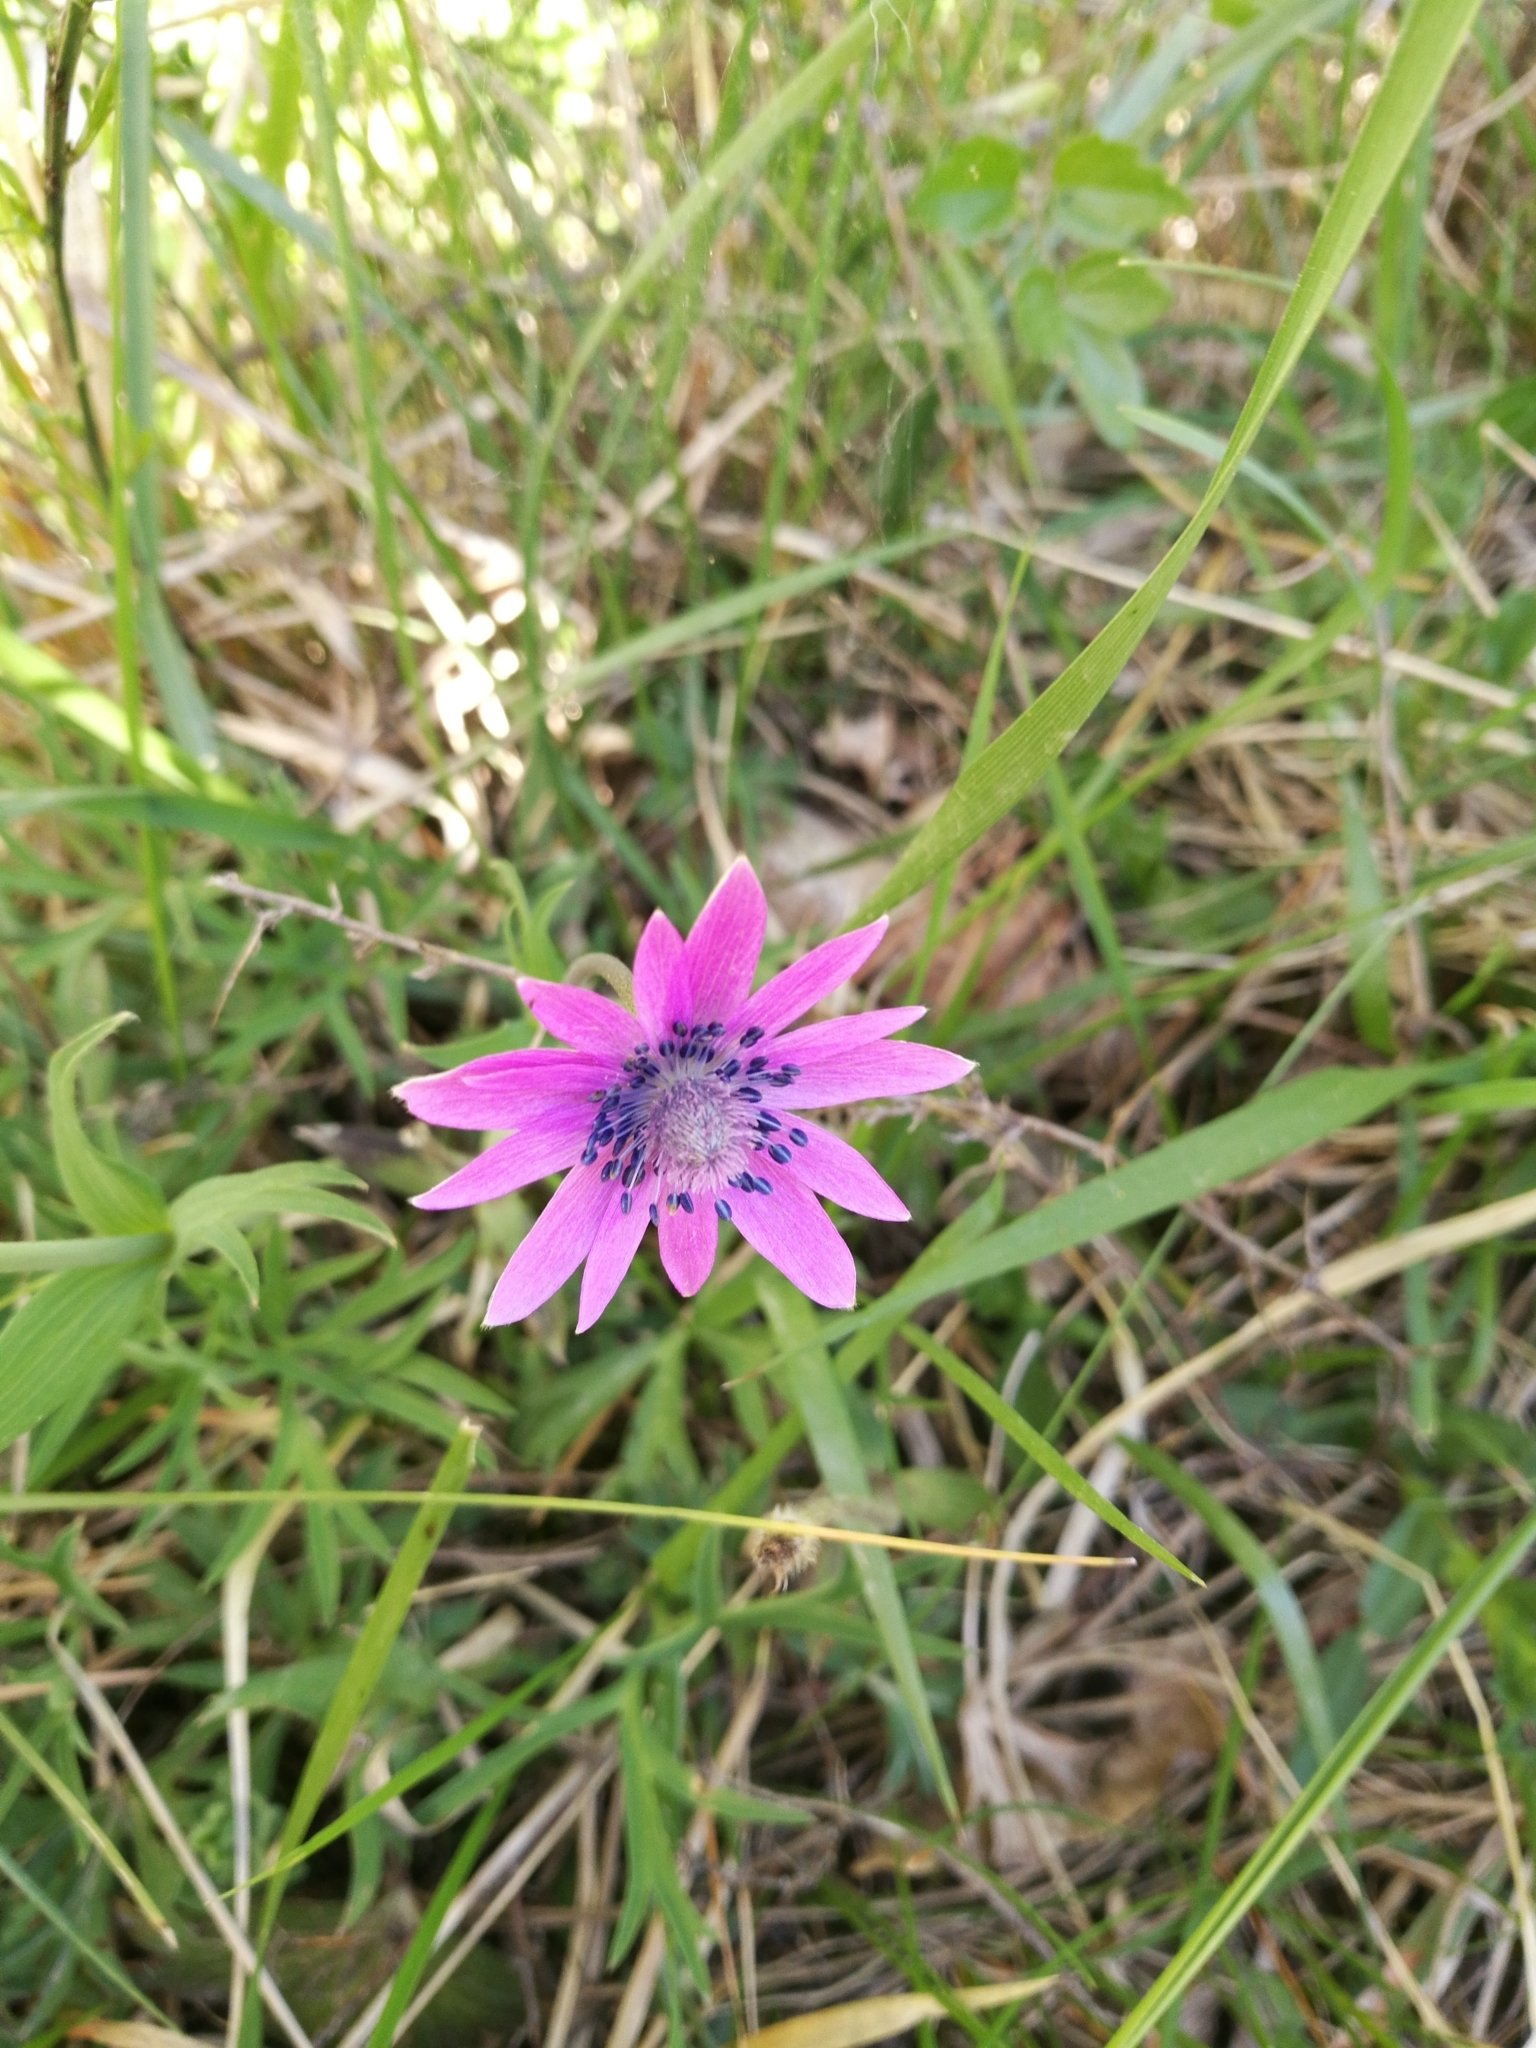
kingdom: Plantae
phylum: Tracheophyta
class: Magnoliopsida
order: Ranunculales
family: Ranunculaceae
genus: Anemone
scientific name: Anemone hortensis
